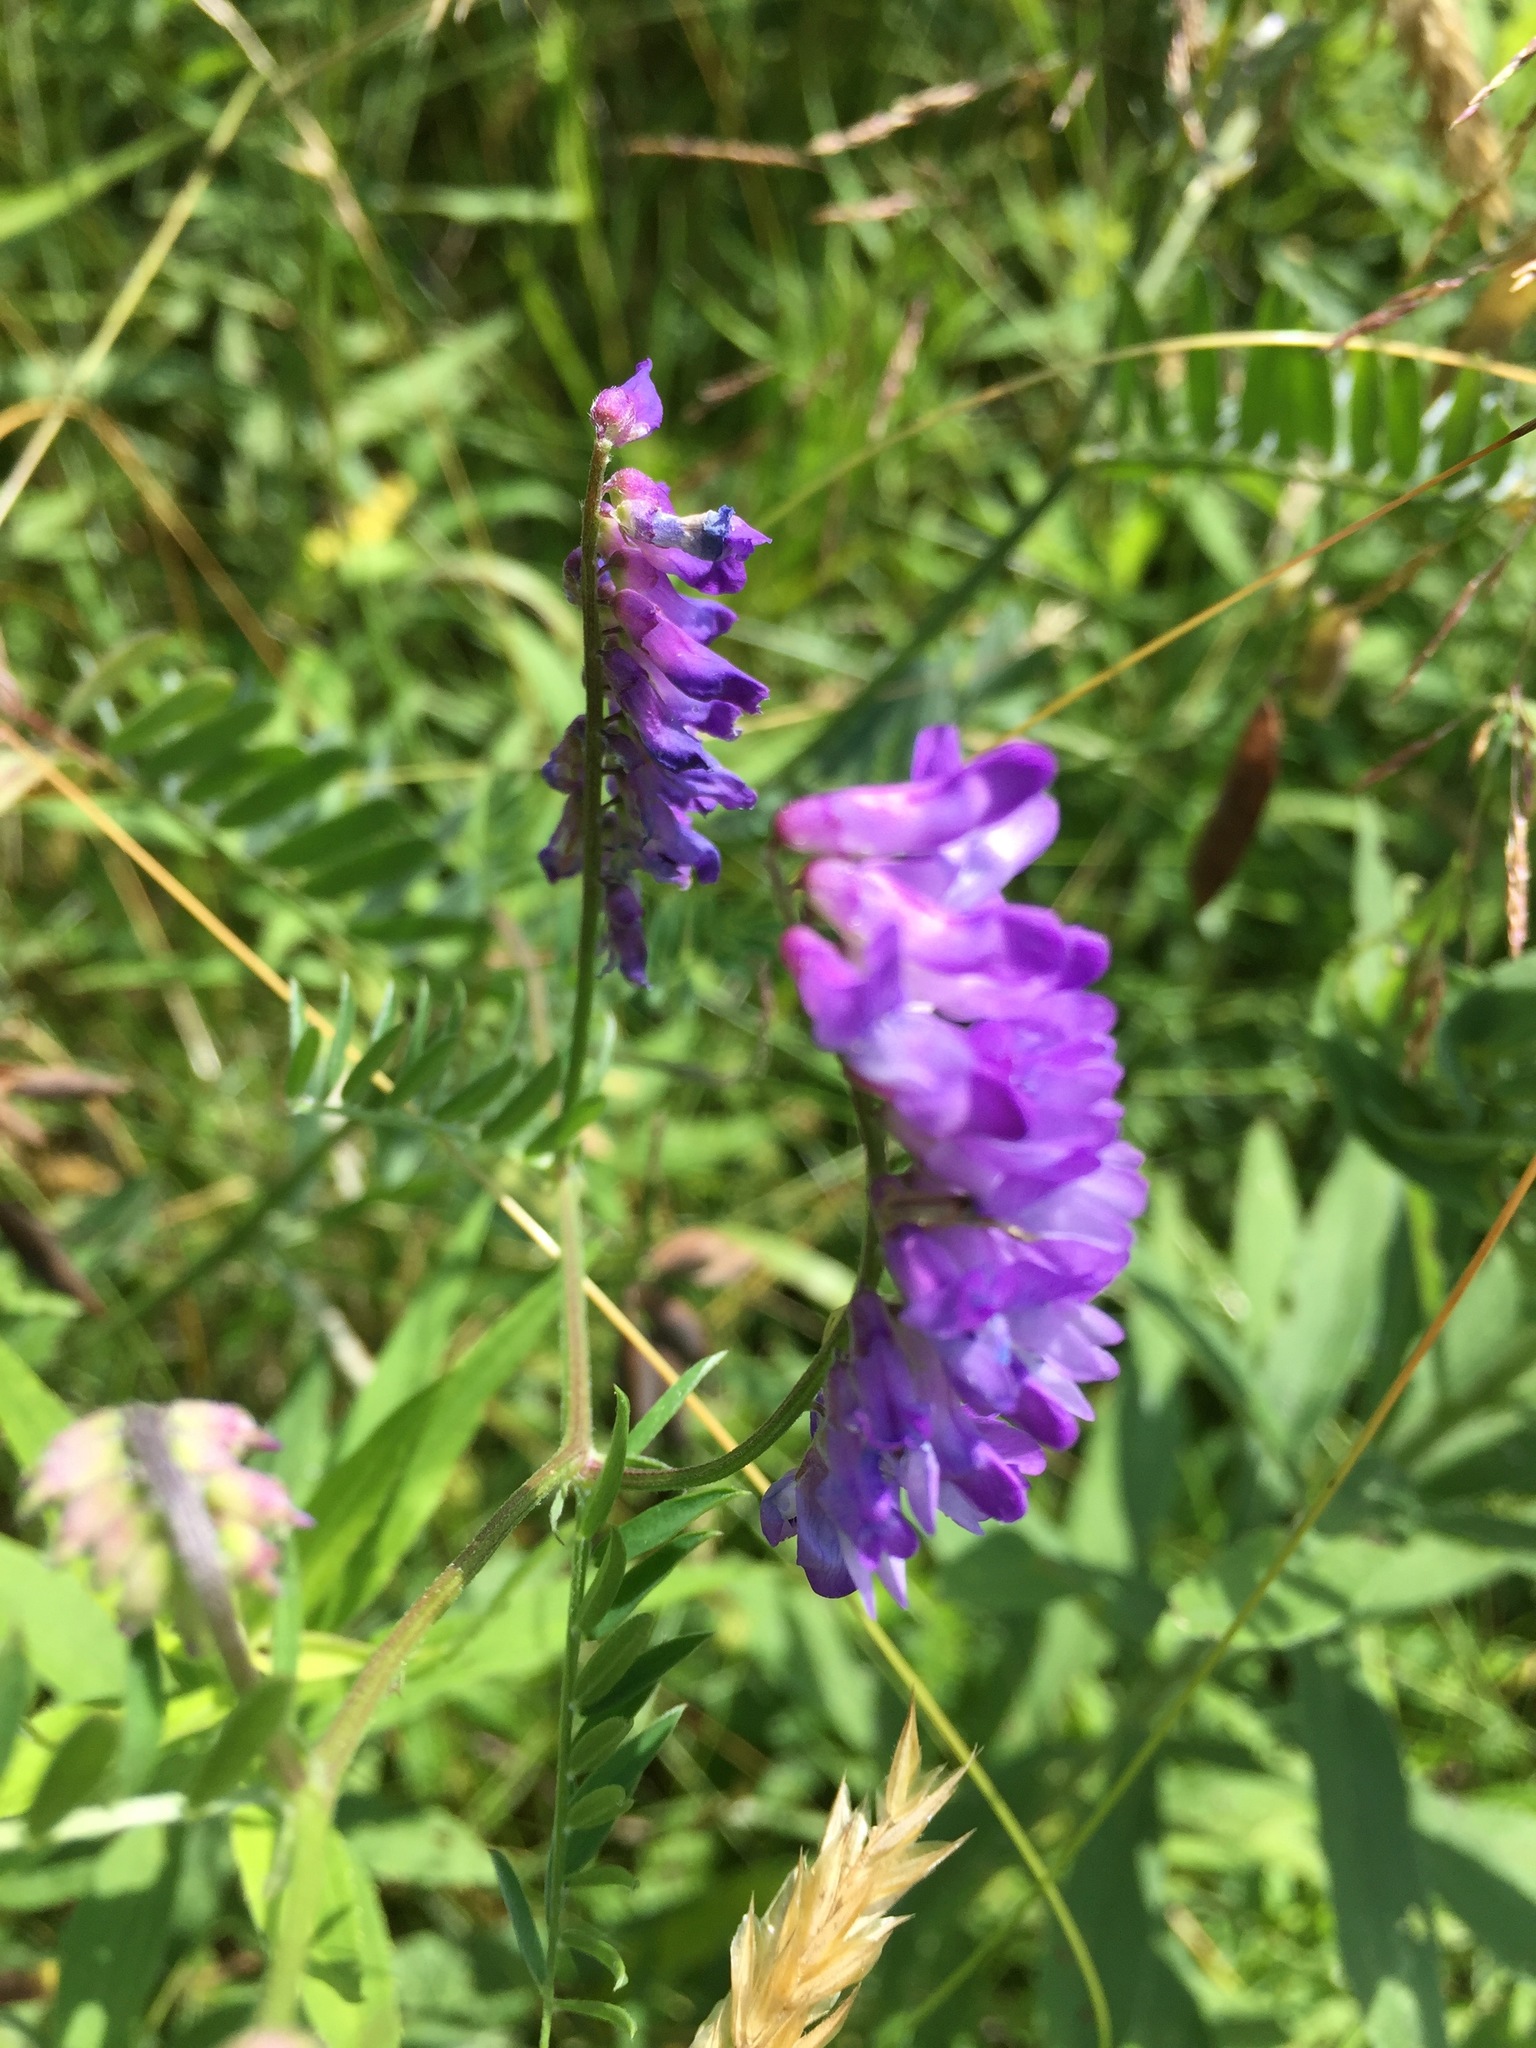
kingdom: Plantae
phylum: Tracheophyta
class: Magnoliopsida
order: Fabales
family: Fabaceae
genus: Vicia
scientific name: Vicia cracca
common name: Bird vetch
